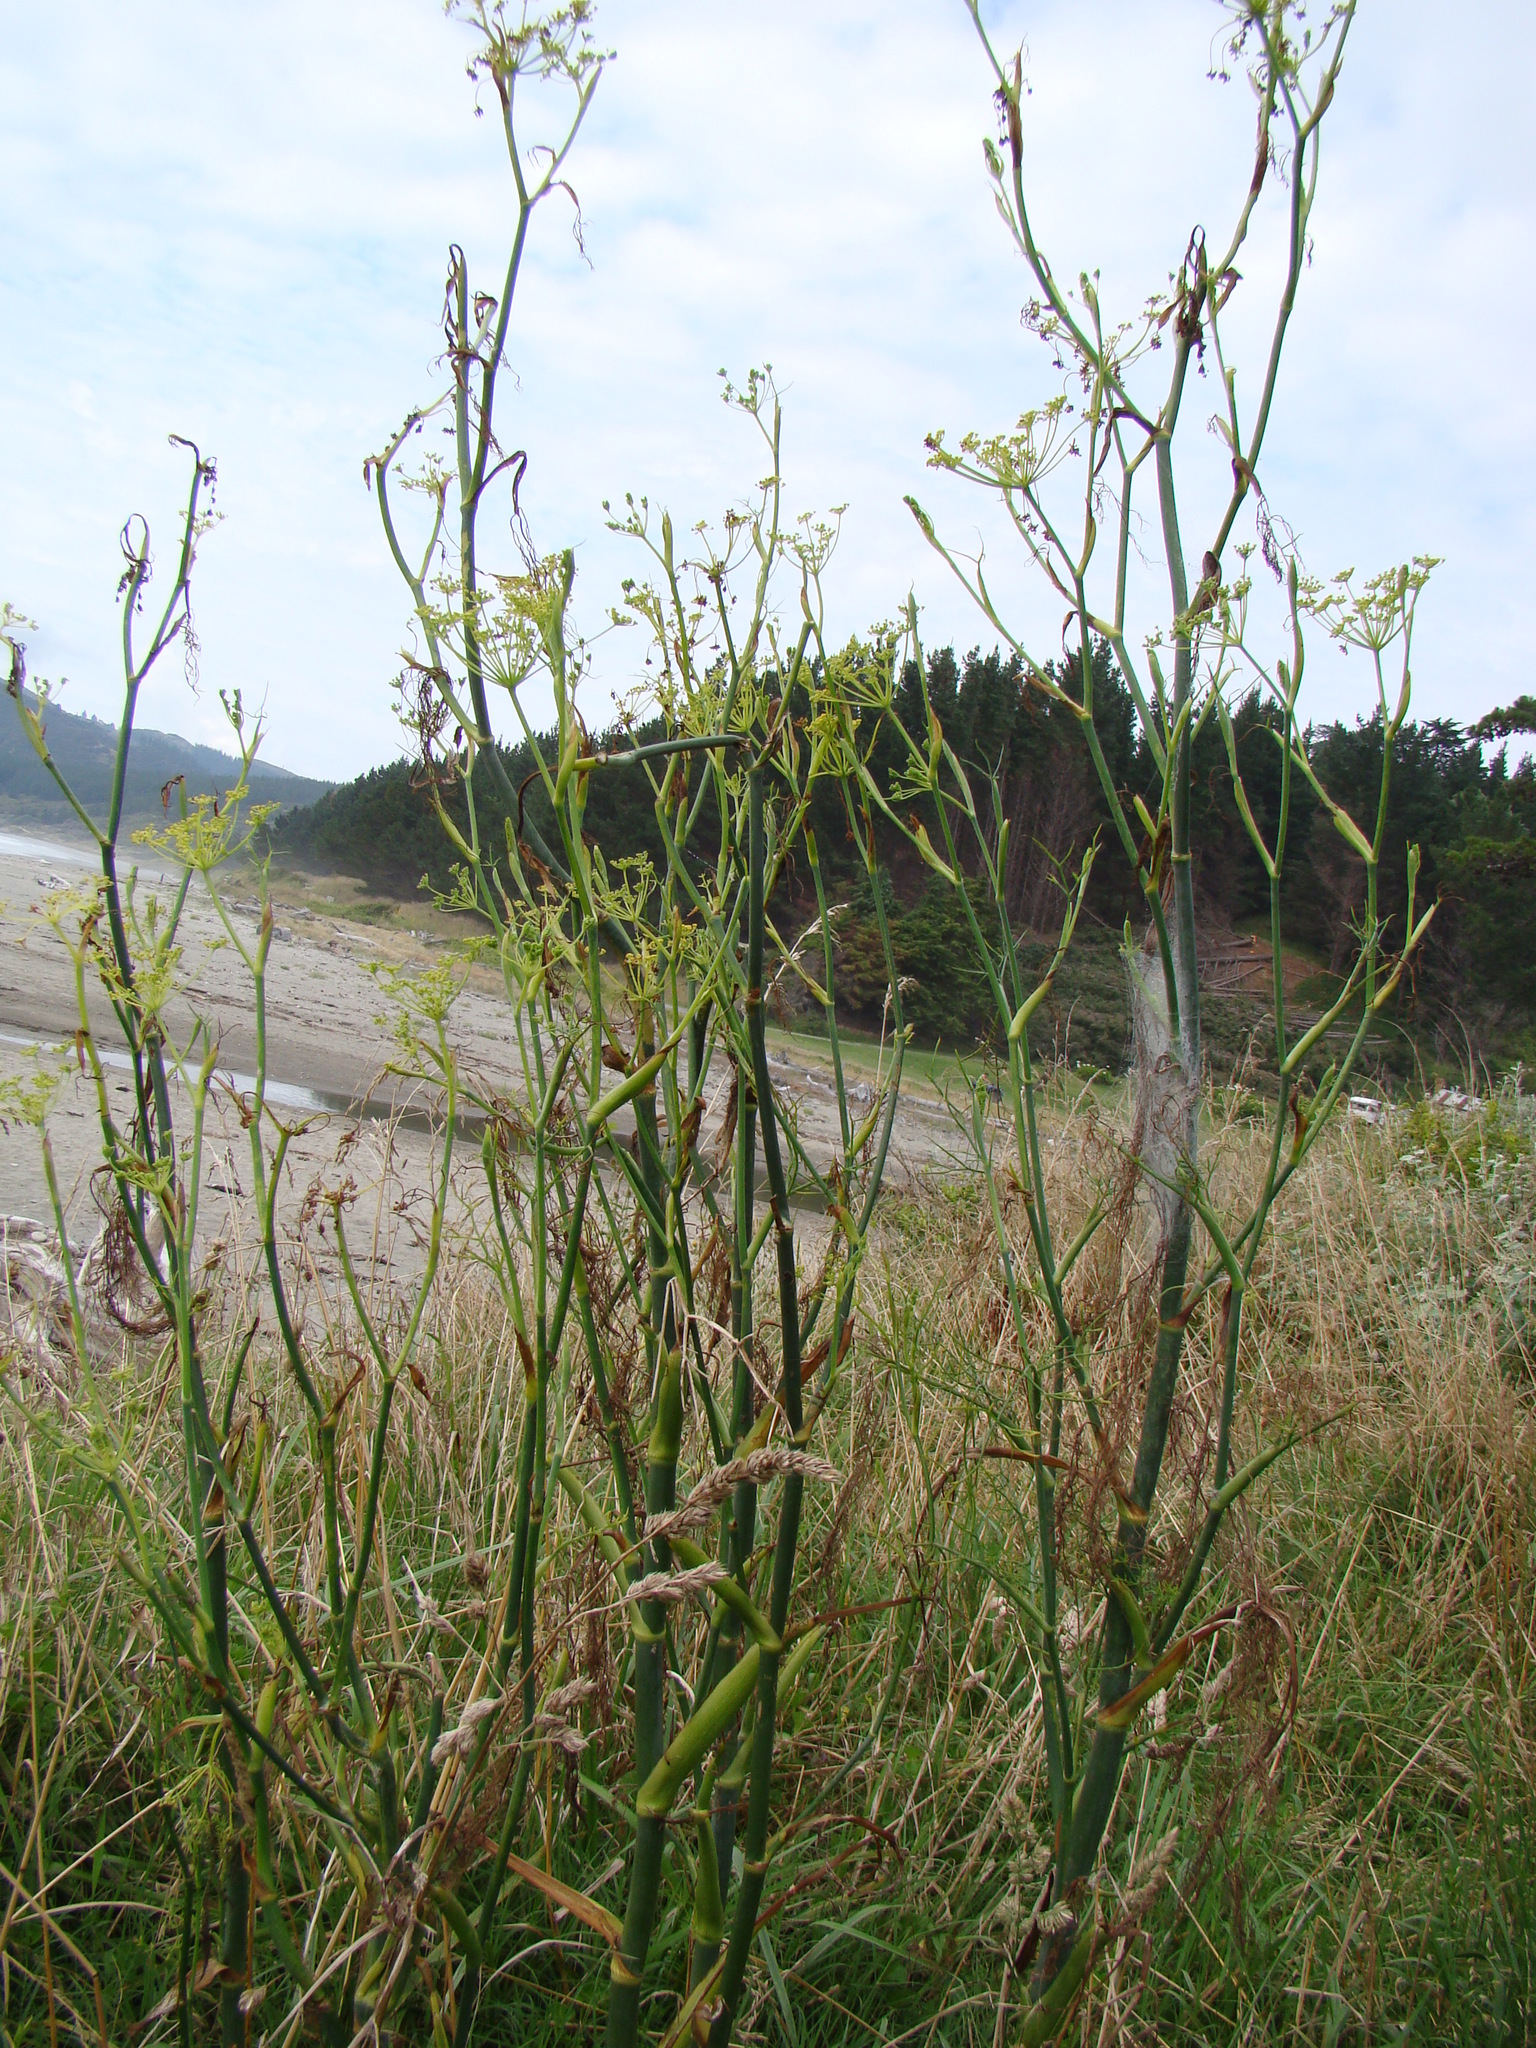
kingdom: Plantae
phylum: Tracheophyta
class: Magnoliopsida
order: Apiales
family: Apiaceae
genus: Foeniculum
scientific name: Foeniculum vulgare
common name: Fennel
